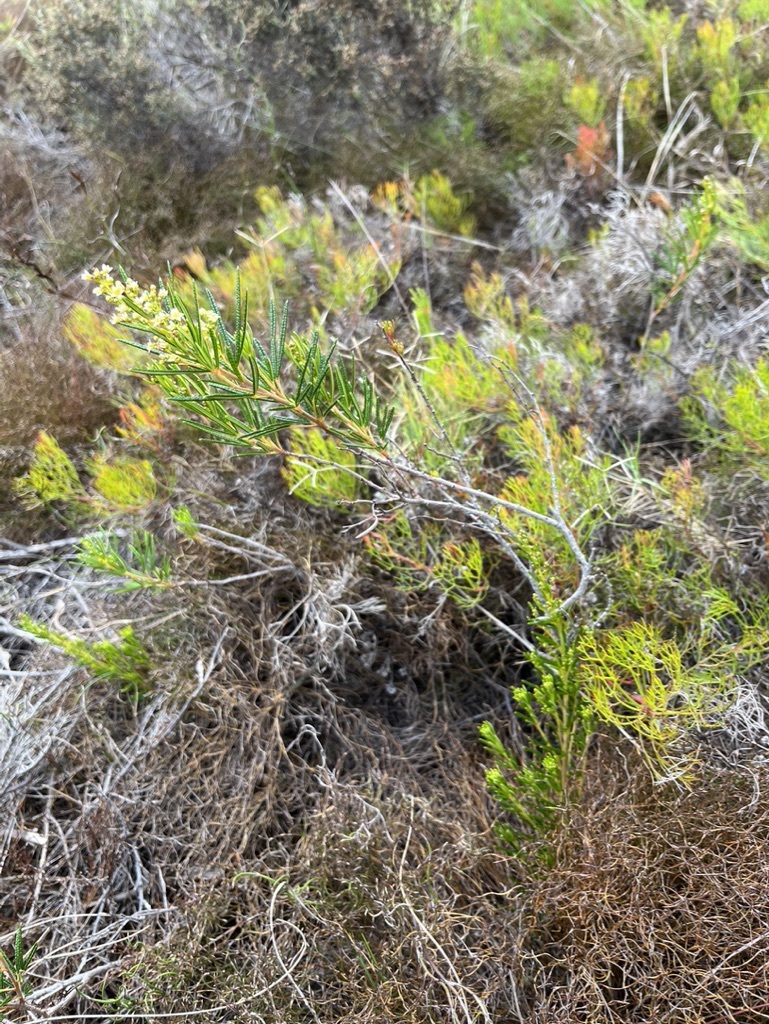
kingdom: Plantae
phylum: Tracheophyta
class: Magnoliopsida
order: Sapindales
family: Anacardiaceae
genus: Searsia
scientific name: Searsia rosmarinifolia
